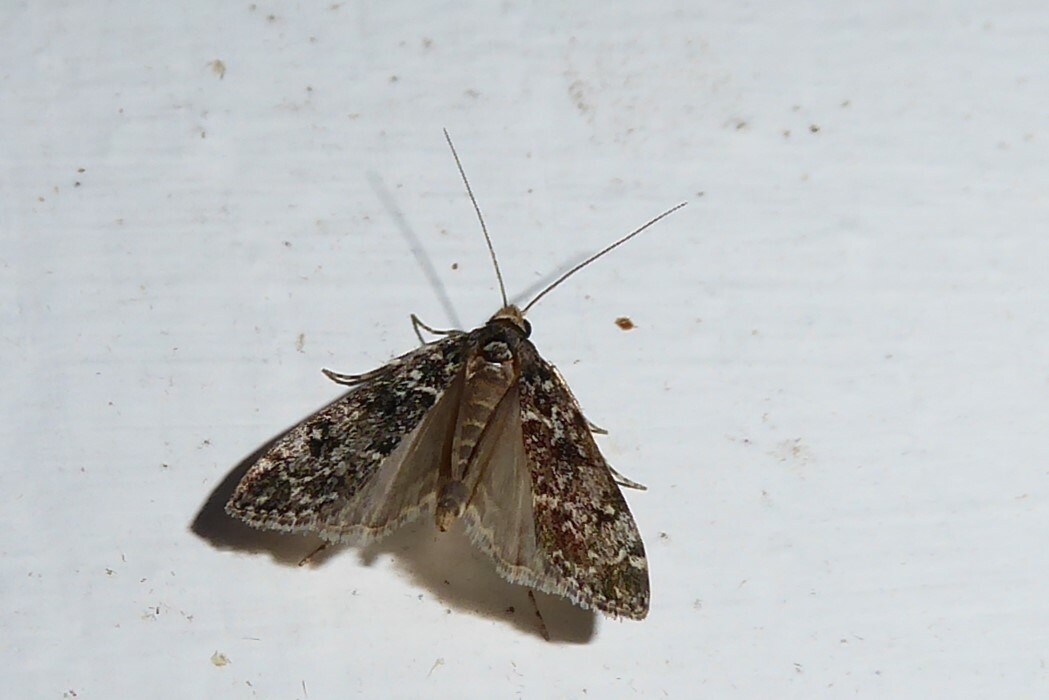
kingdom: Animalia
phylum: Arthropoda
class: Insecta
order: Lepidoptera
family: Crambidae
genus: Eudonia
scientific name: Eudonia philerga
